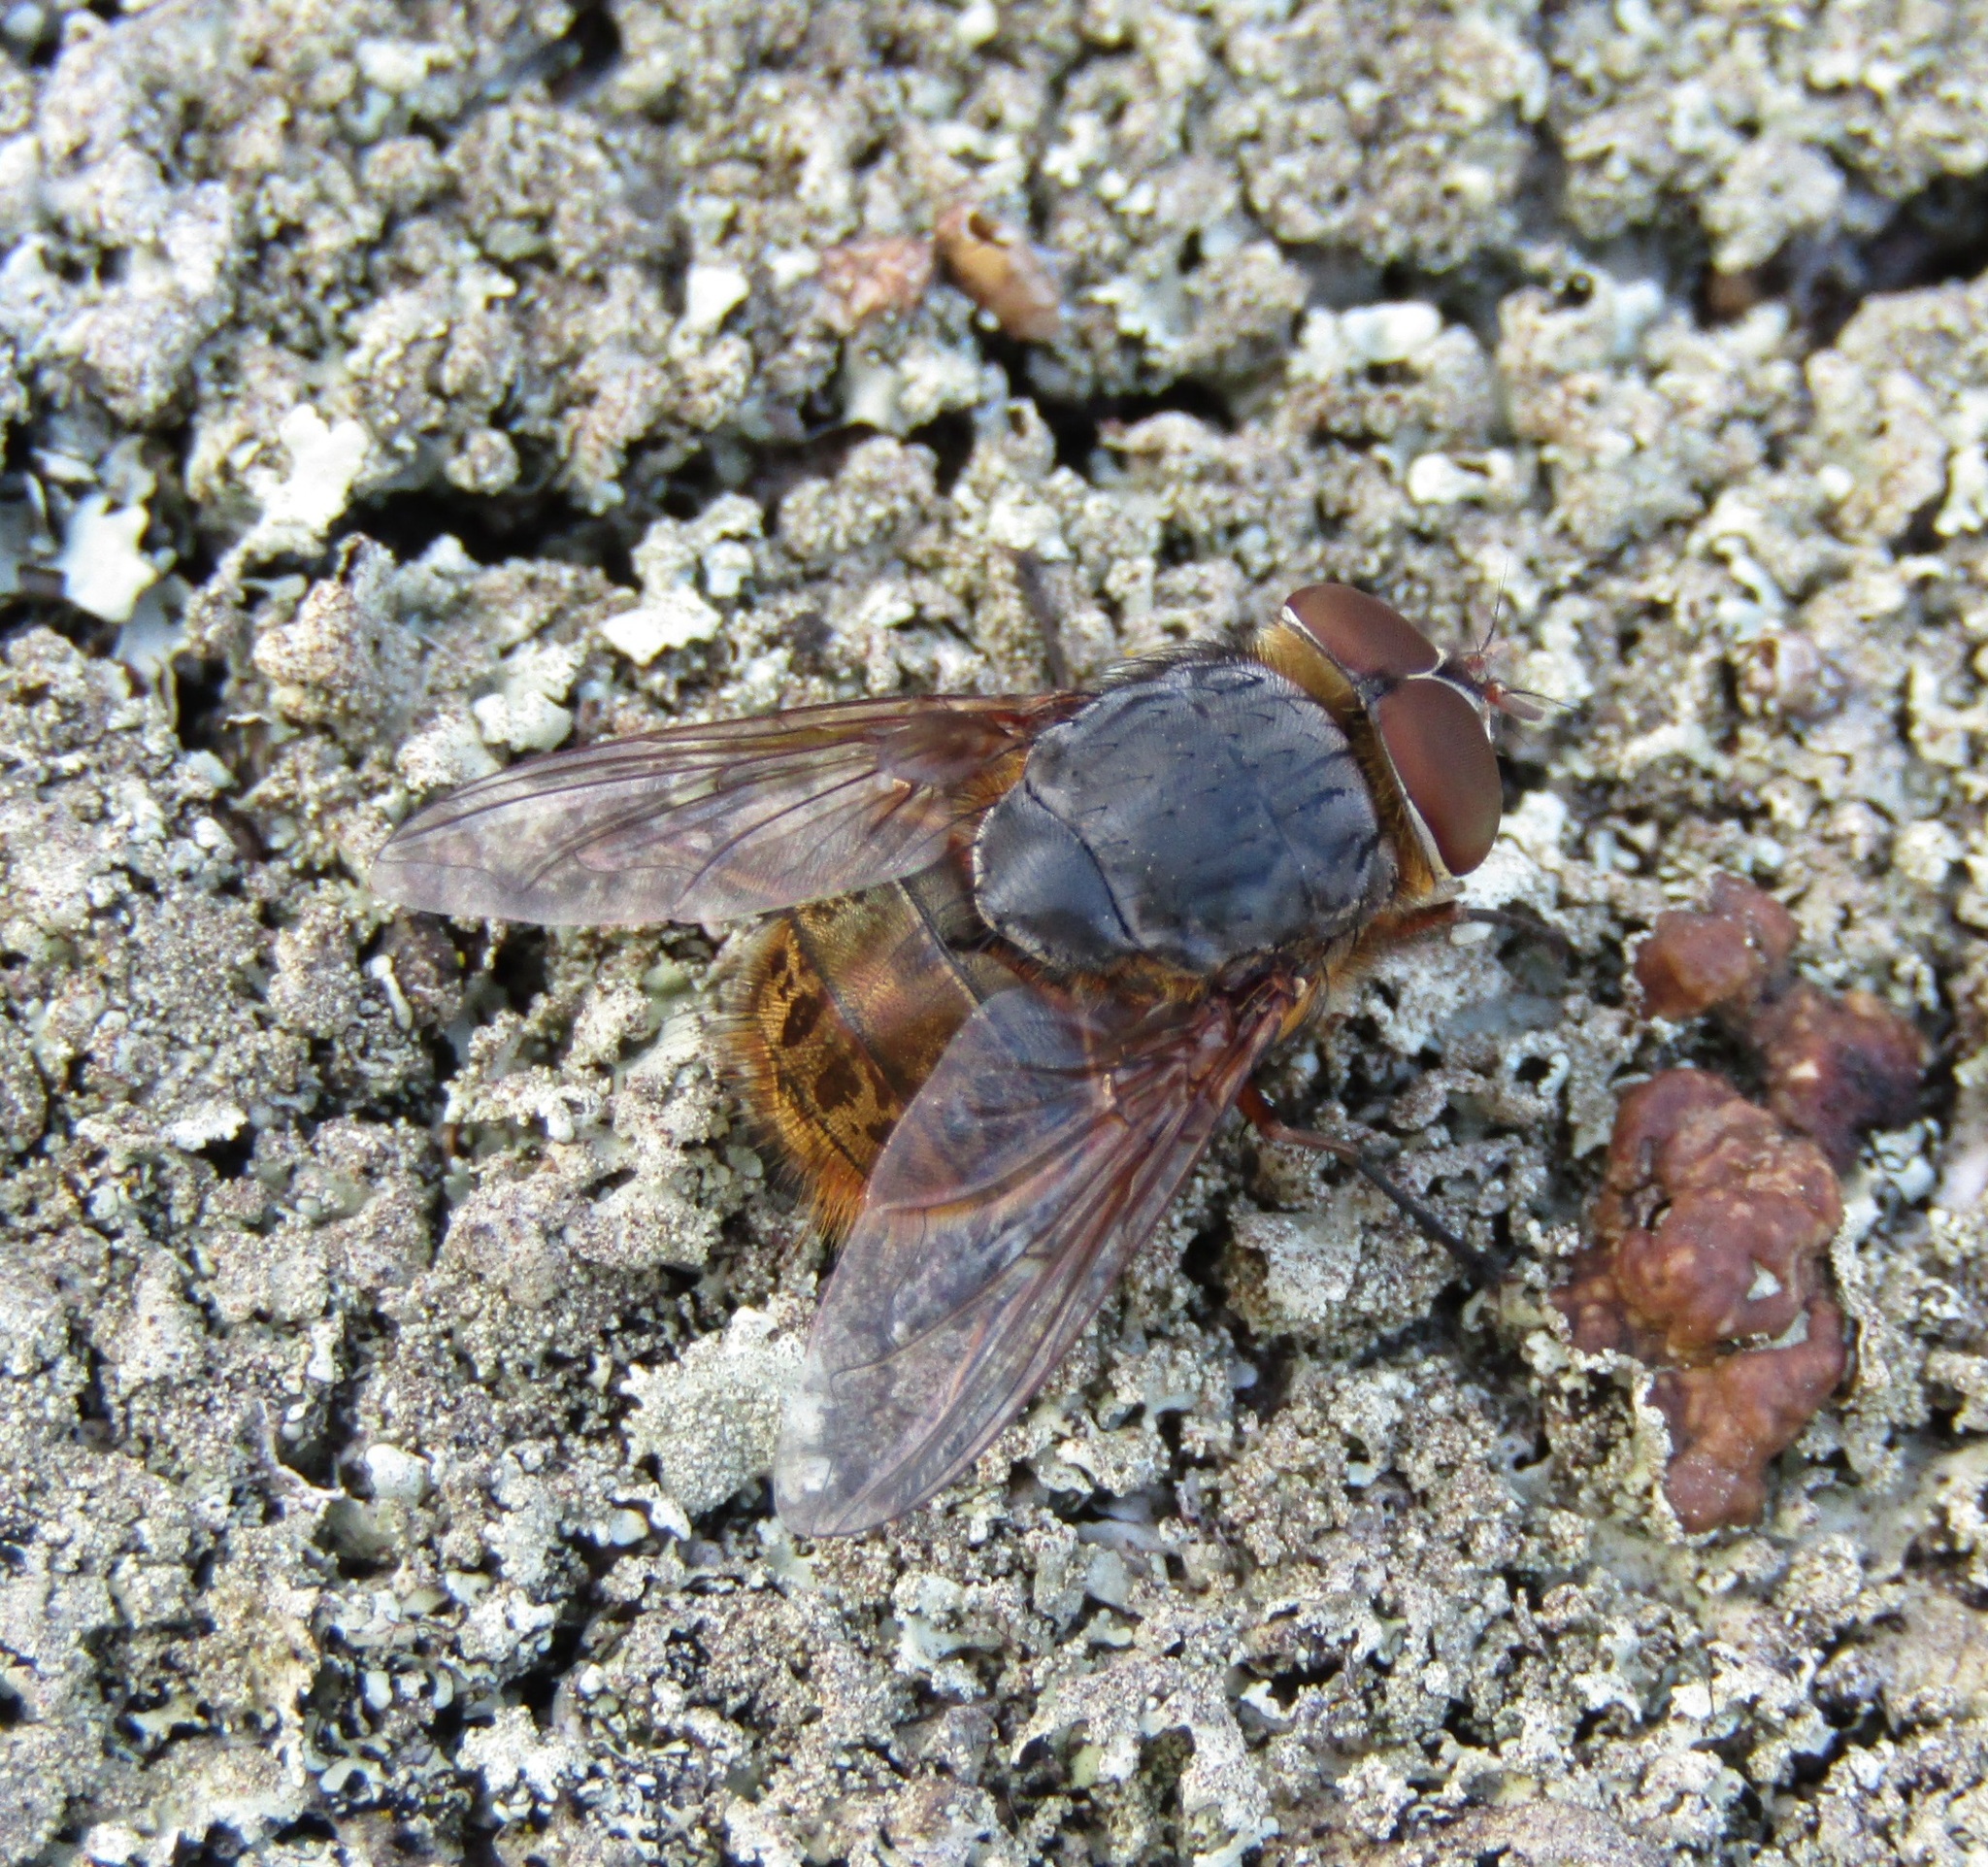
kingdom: Animalia
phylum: Arthropoda
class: Insecta
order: Diptera
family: Calliphoridae
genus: Calliphora
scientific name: Calliphora stygia
